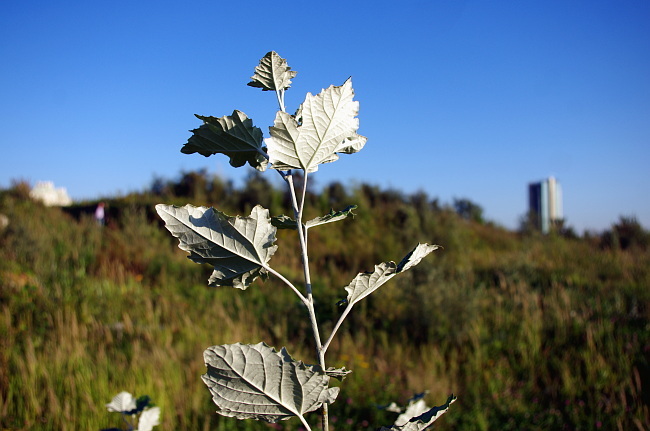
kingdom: Plantae
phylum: Tracheophyta
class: Magnoliopsida
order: Malpighiales
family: Salicaceae
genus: Populus
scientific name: Populus alba
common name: White poplar
